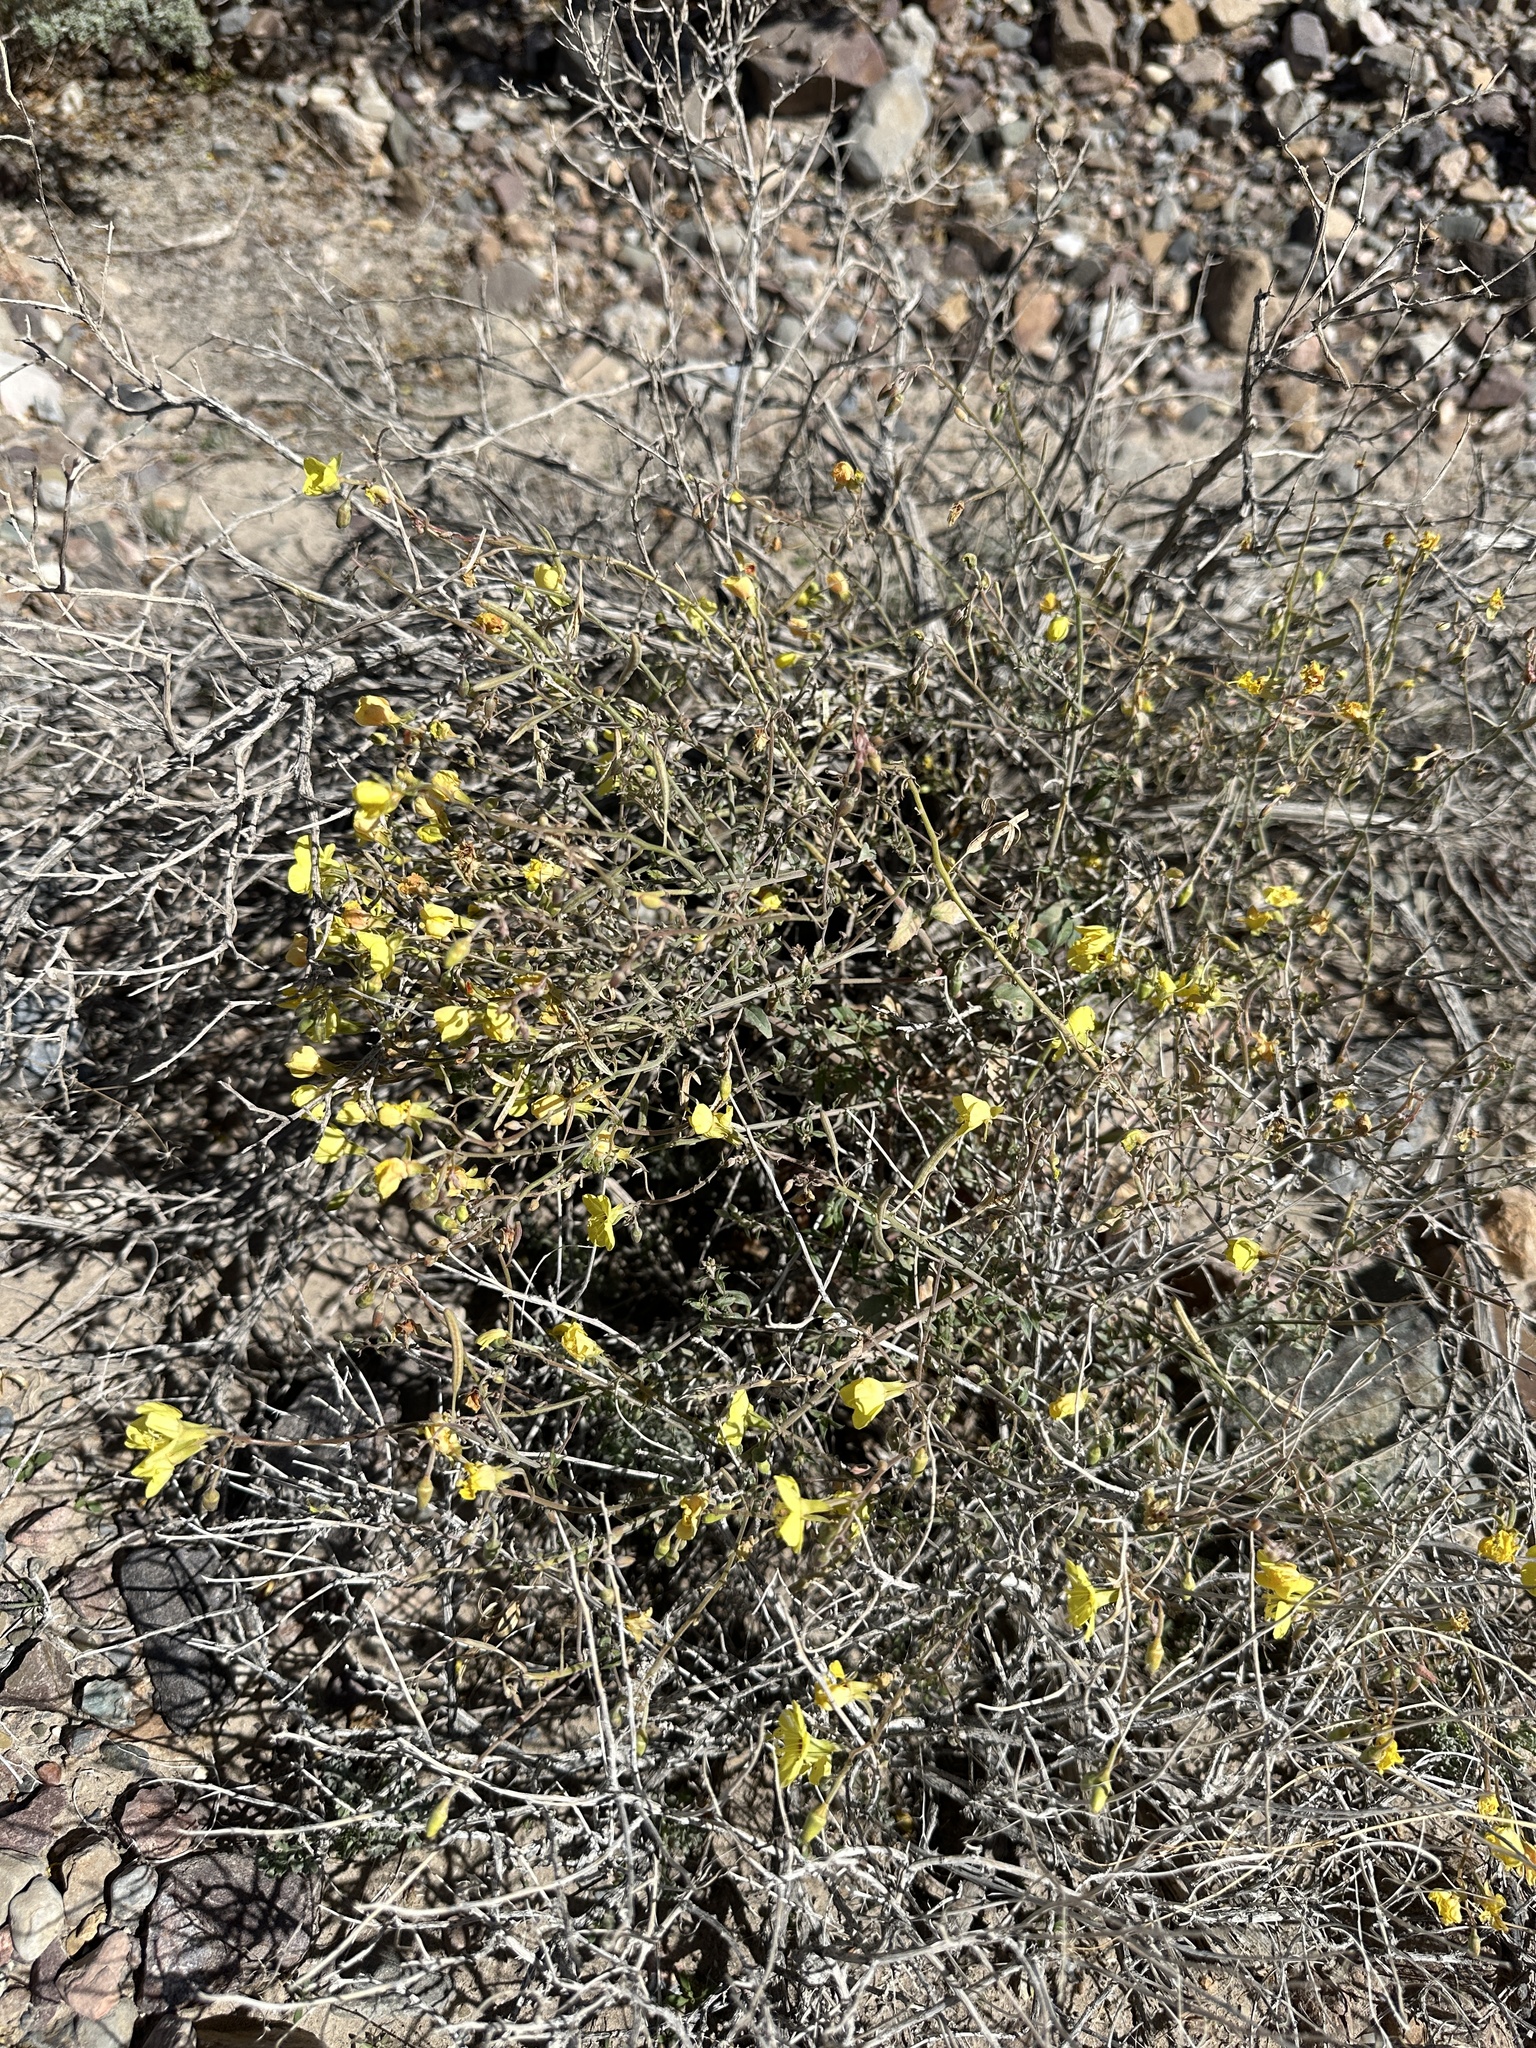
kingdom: Plantae
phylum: Tracheophyta
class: Magnoliopsida
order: Myrtales
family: Onagraceae
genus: Chylismia
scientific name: Chylismia munzii
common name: Death valley suncup
